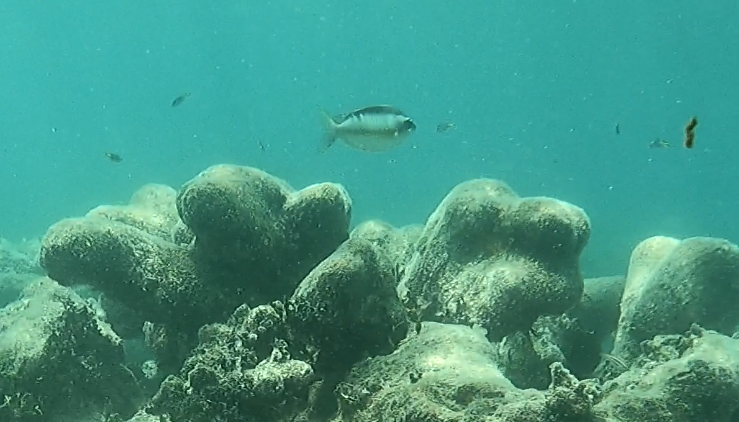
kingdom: Animalia
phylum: Chordata
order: Perciformes
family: Nemipteridae
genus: Scolopsis
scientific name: Scolopsis margaritifera
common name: Pearly monocle bream
